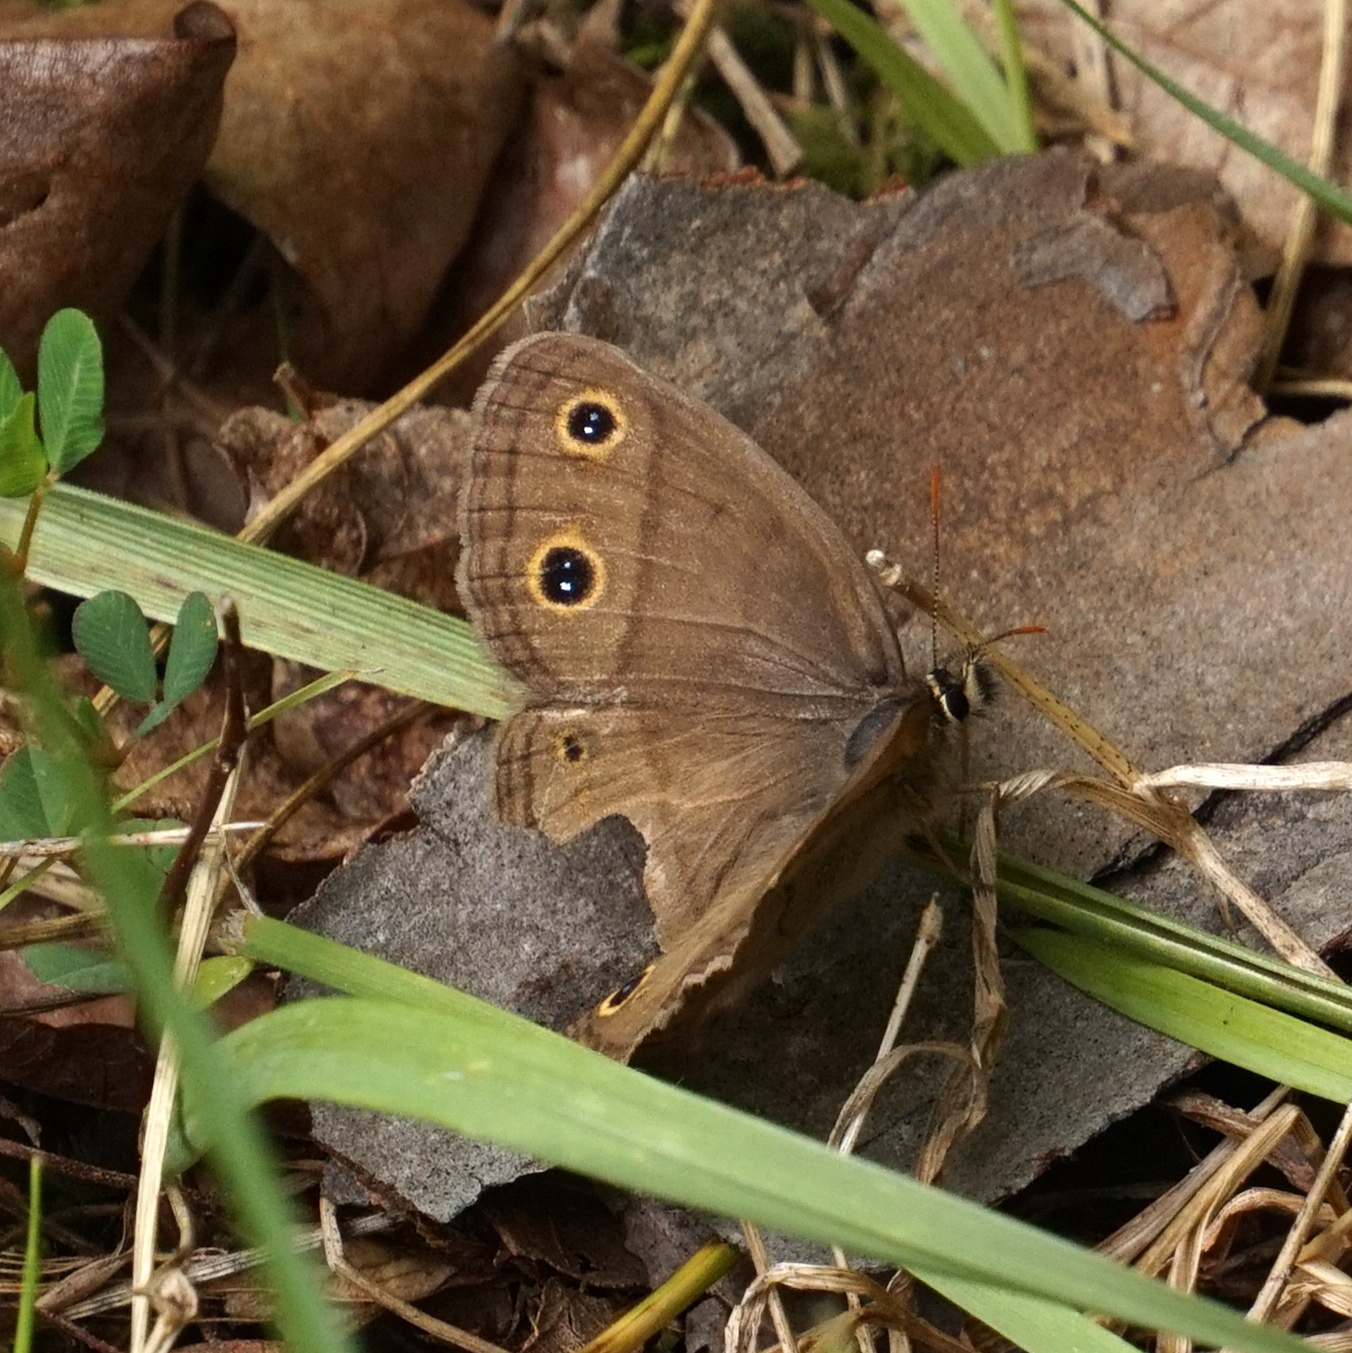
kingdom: Animalia
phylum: Arthropoda
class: Insecta
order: Lepidoptera
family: Nymphalidae
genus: Euptychia
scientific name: Euptychia cymela
